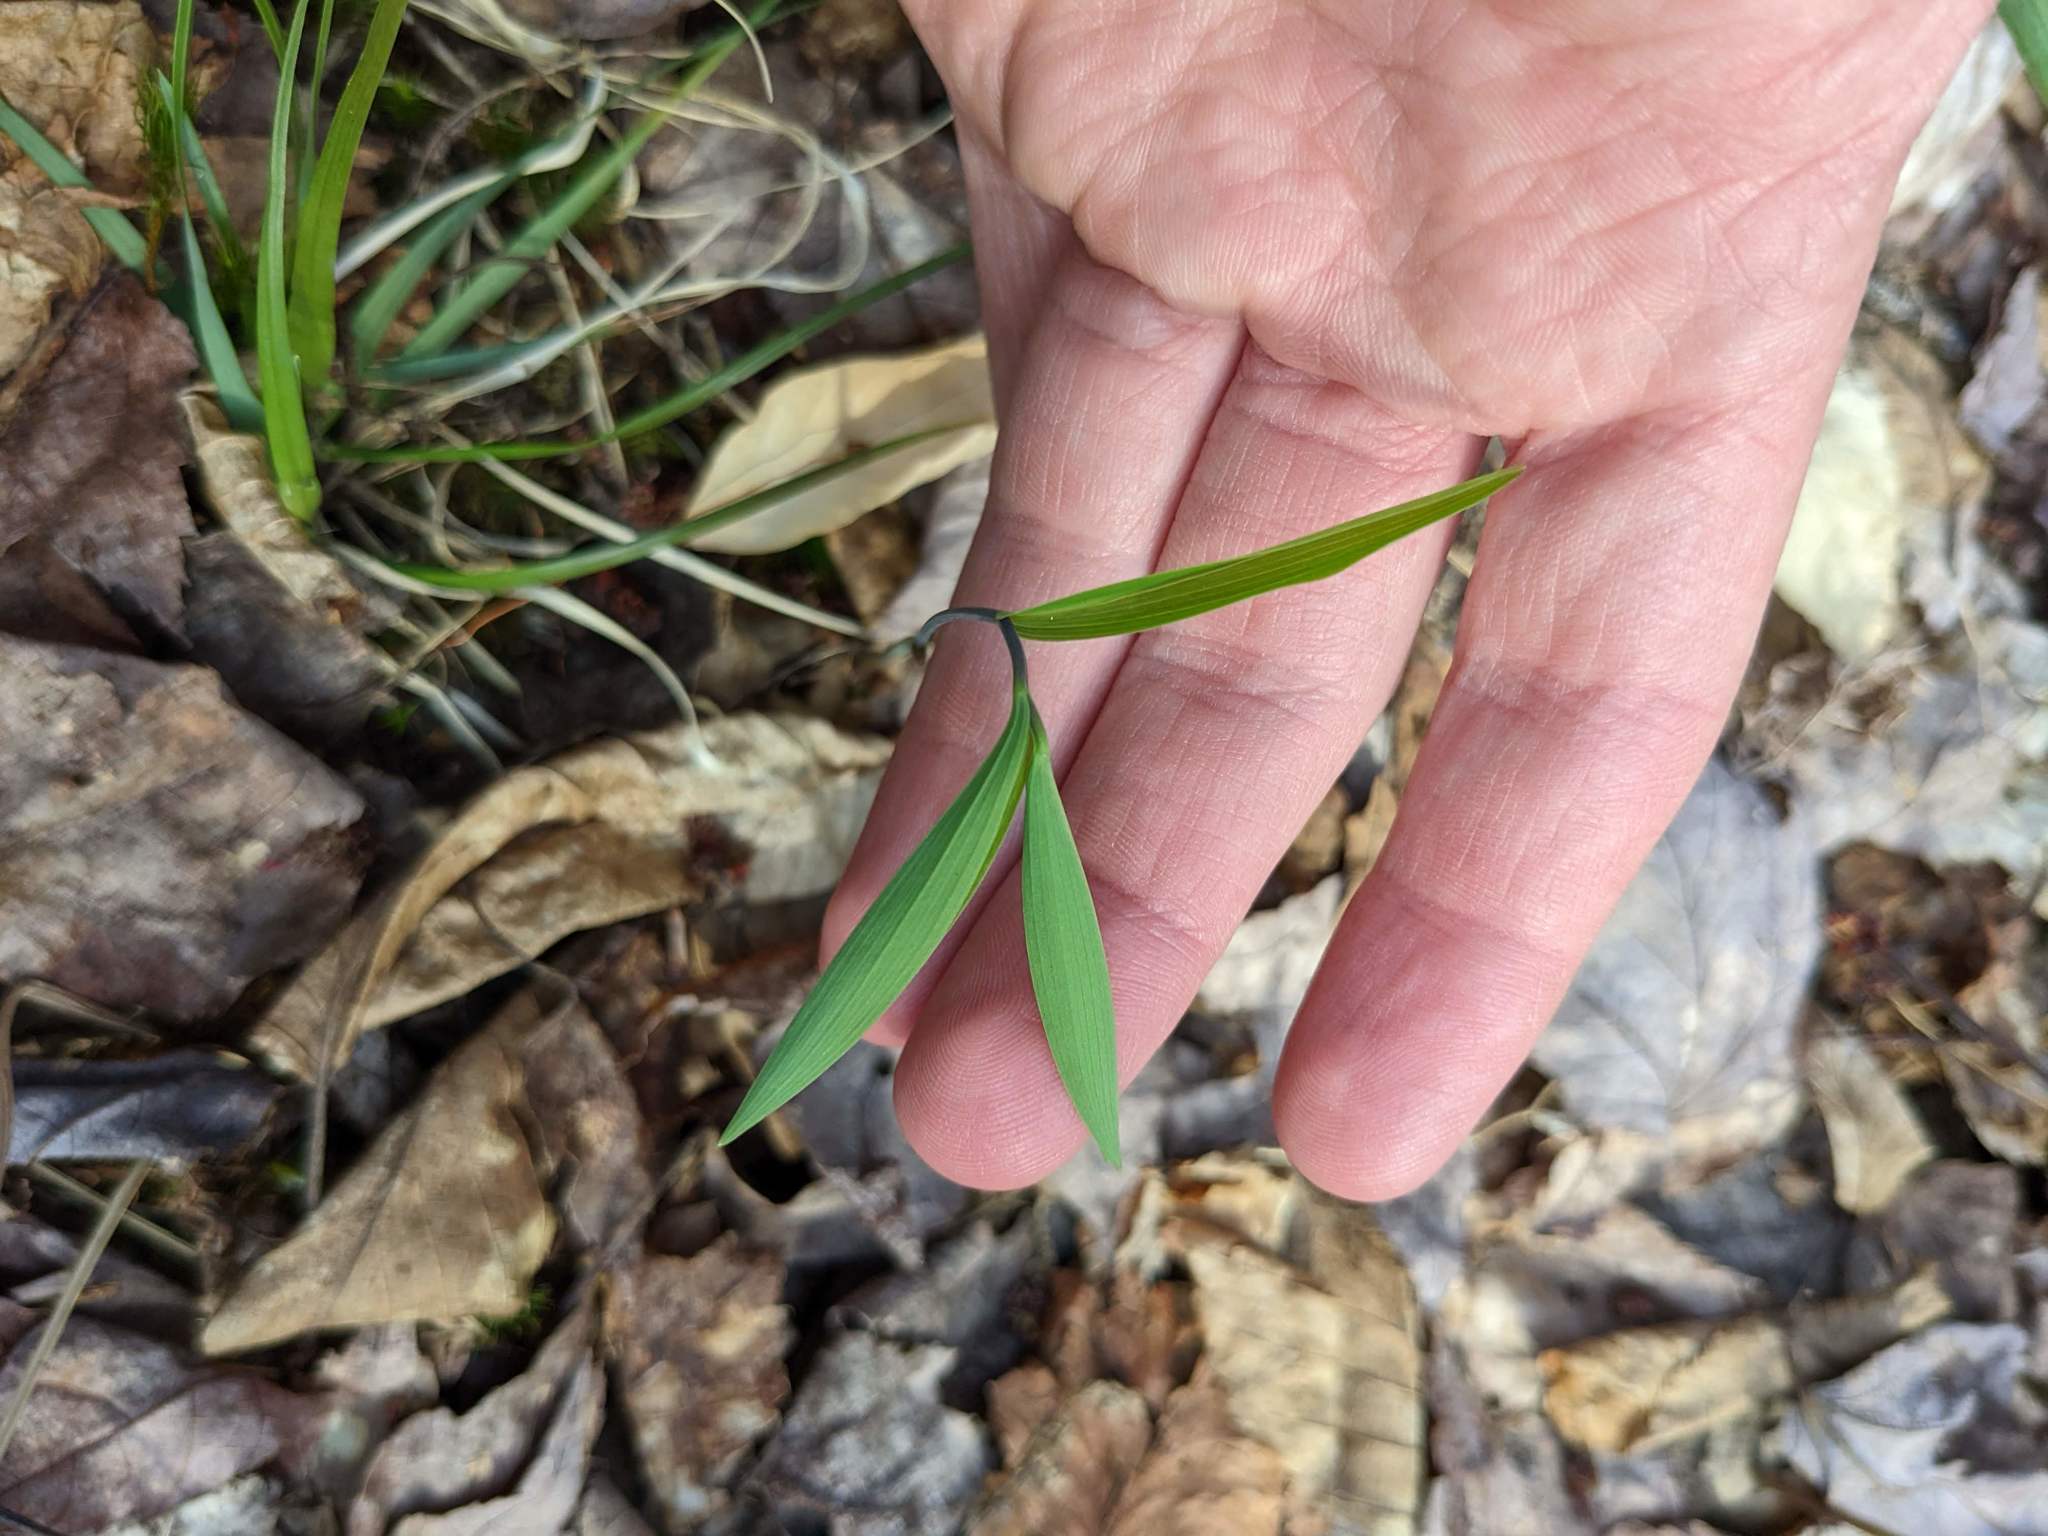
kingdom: Plantae
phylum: Tracheophyta
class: Liliopsida
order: Liliales
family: Colchicaceae
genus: Uvularia
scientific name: Uvularia sessilifolia
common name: Straw-lily
